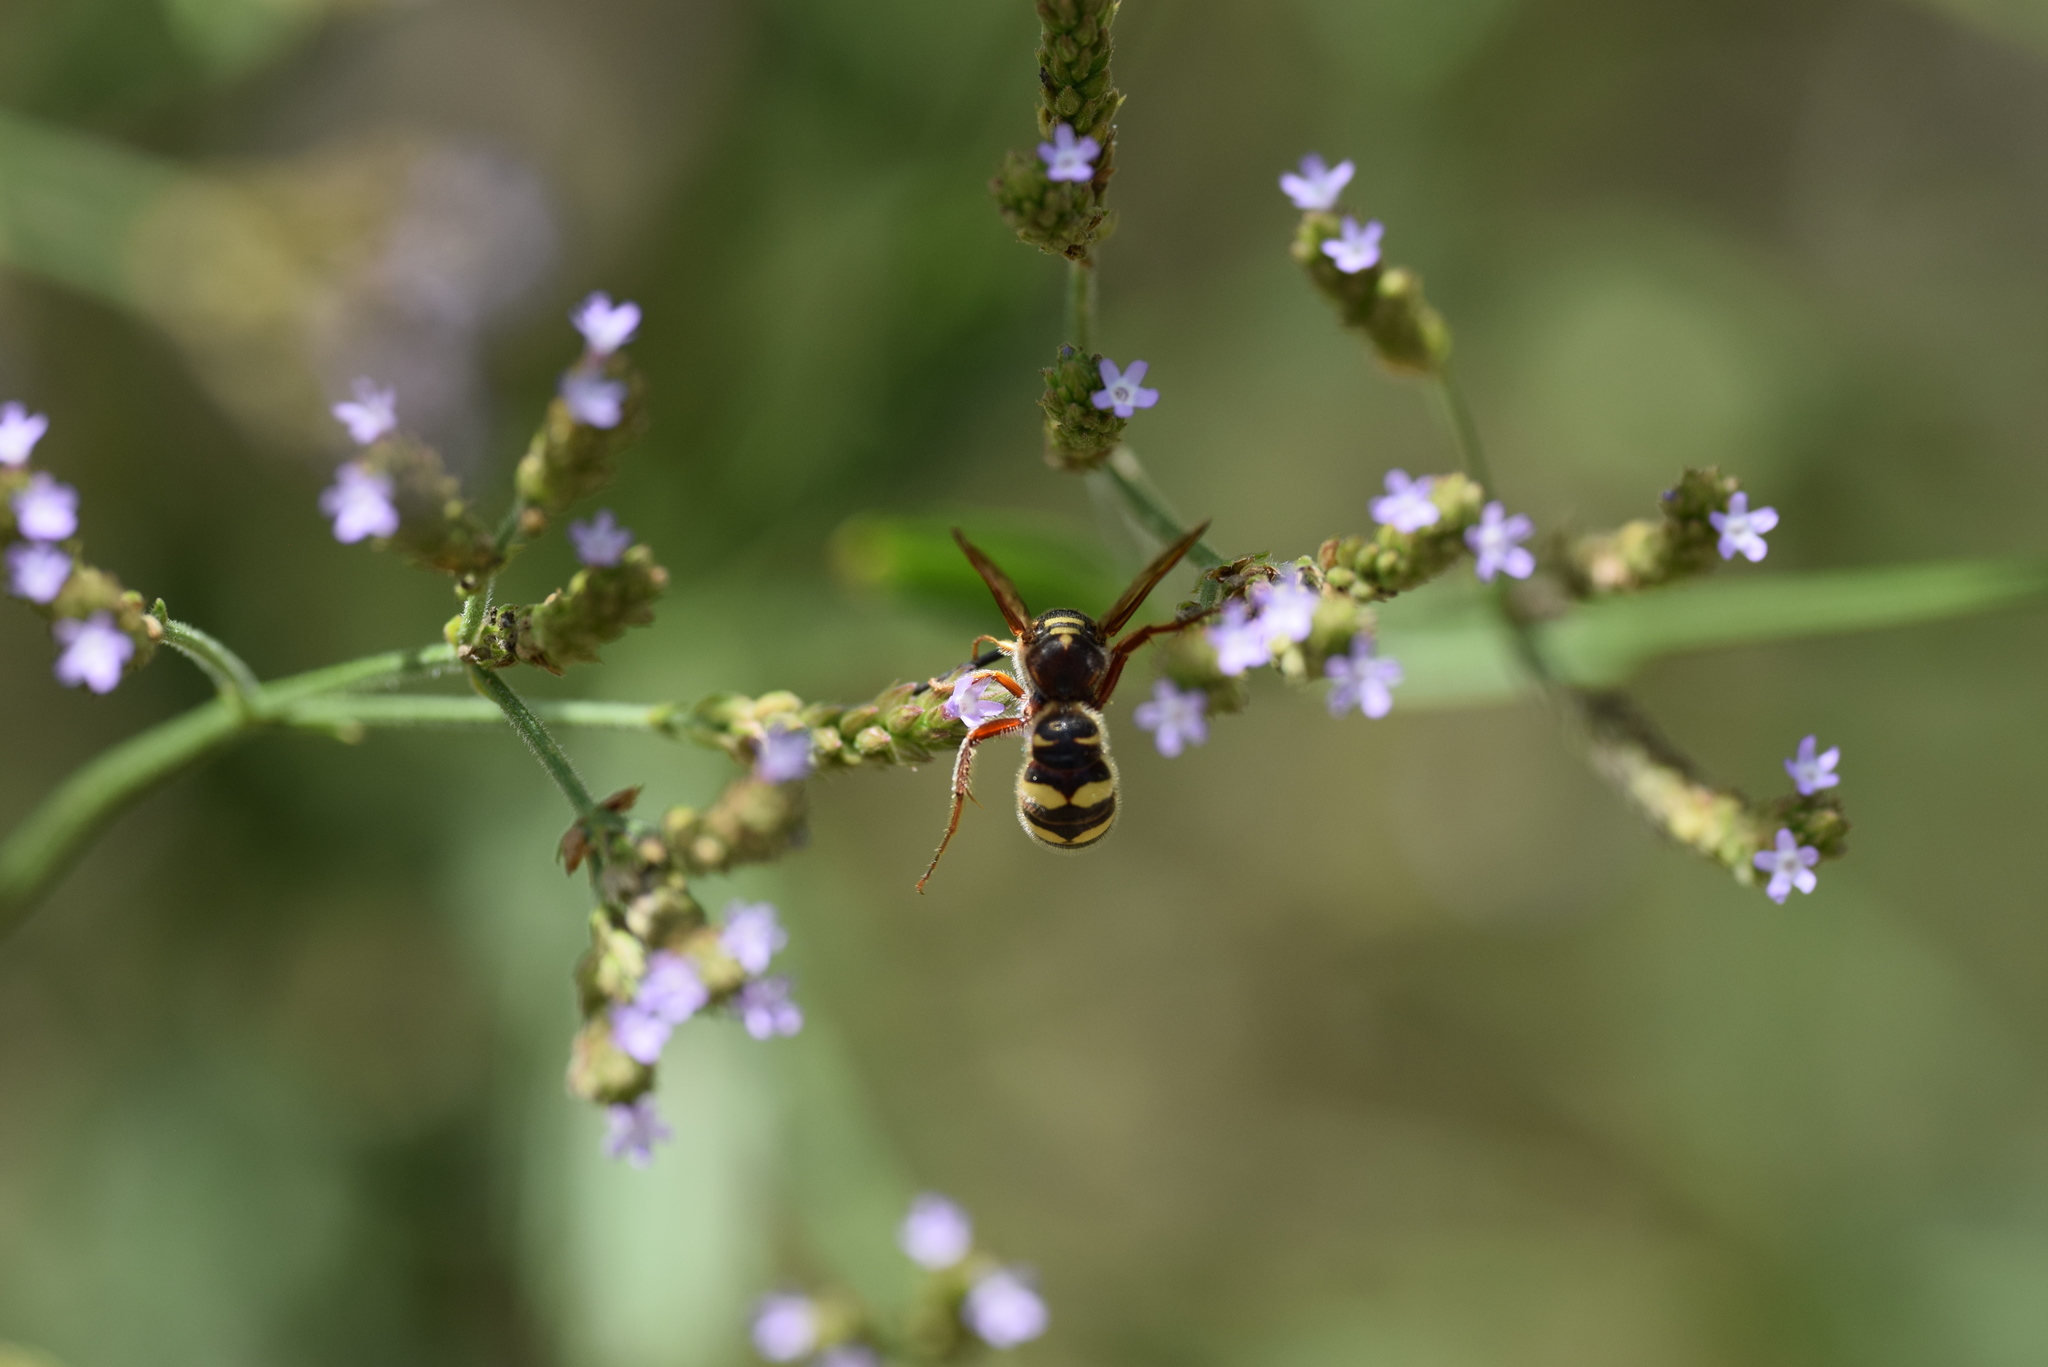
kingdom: Animalia
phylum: Arthropoda
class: Insecta
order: Hymenoptera
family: Scoliidae
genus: Colpa
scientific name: Colpa octomaculata
